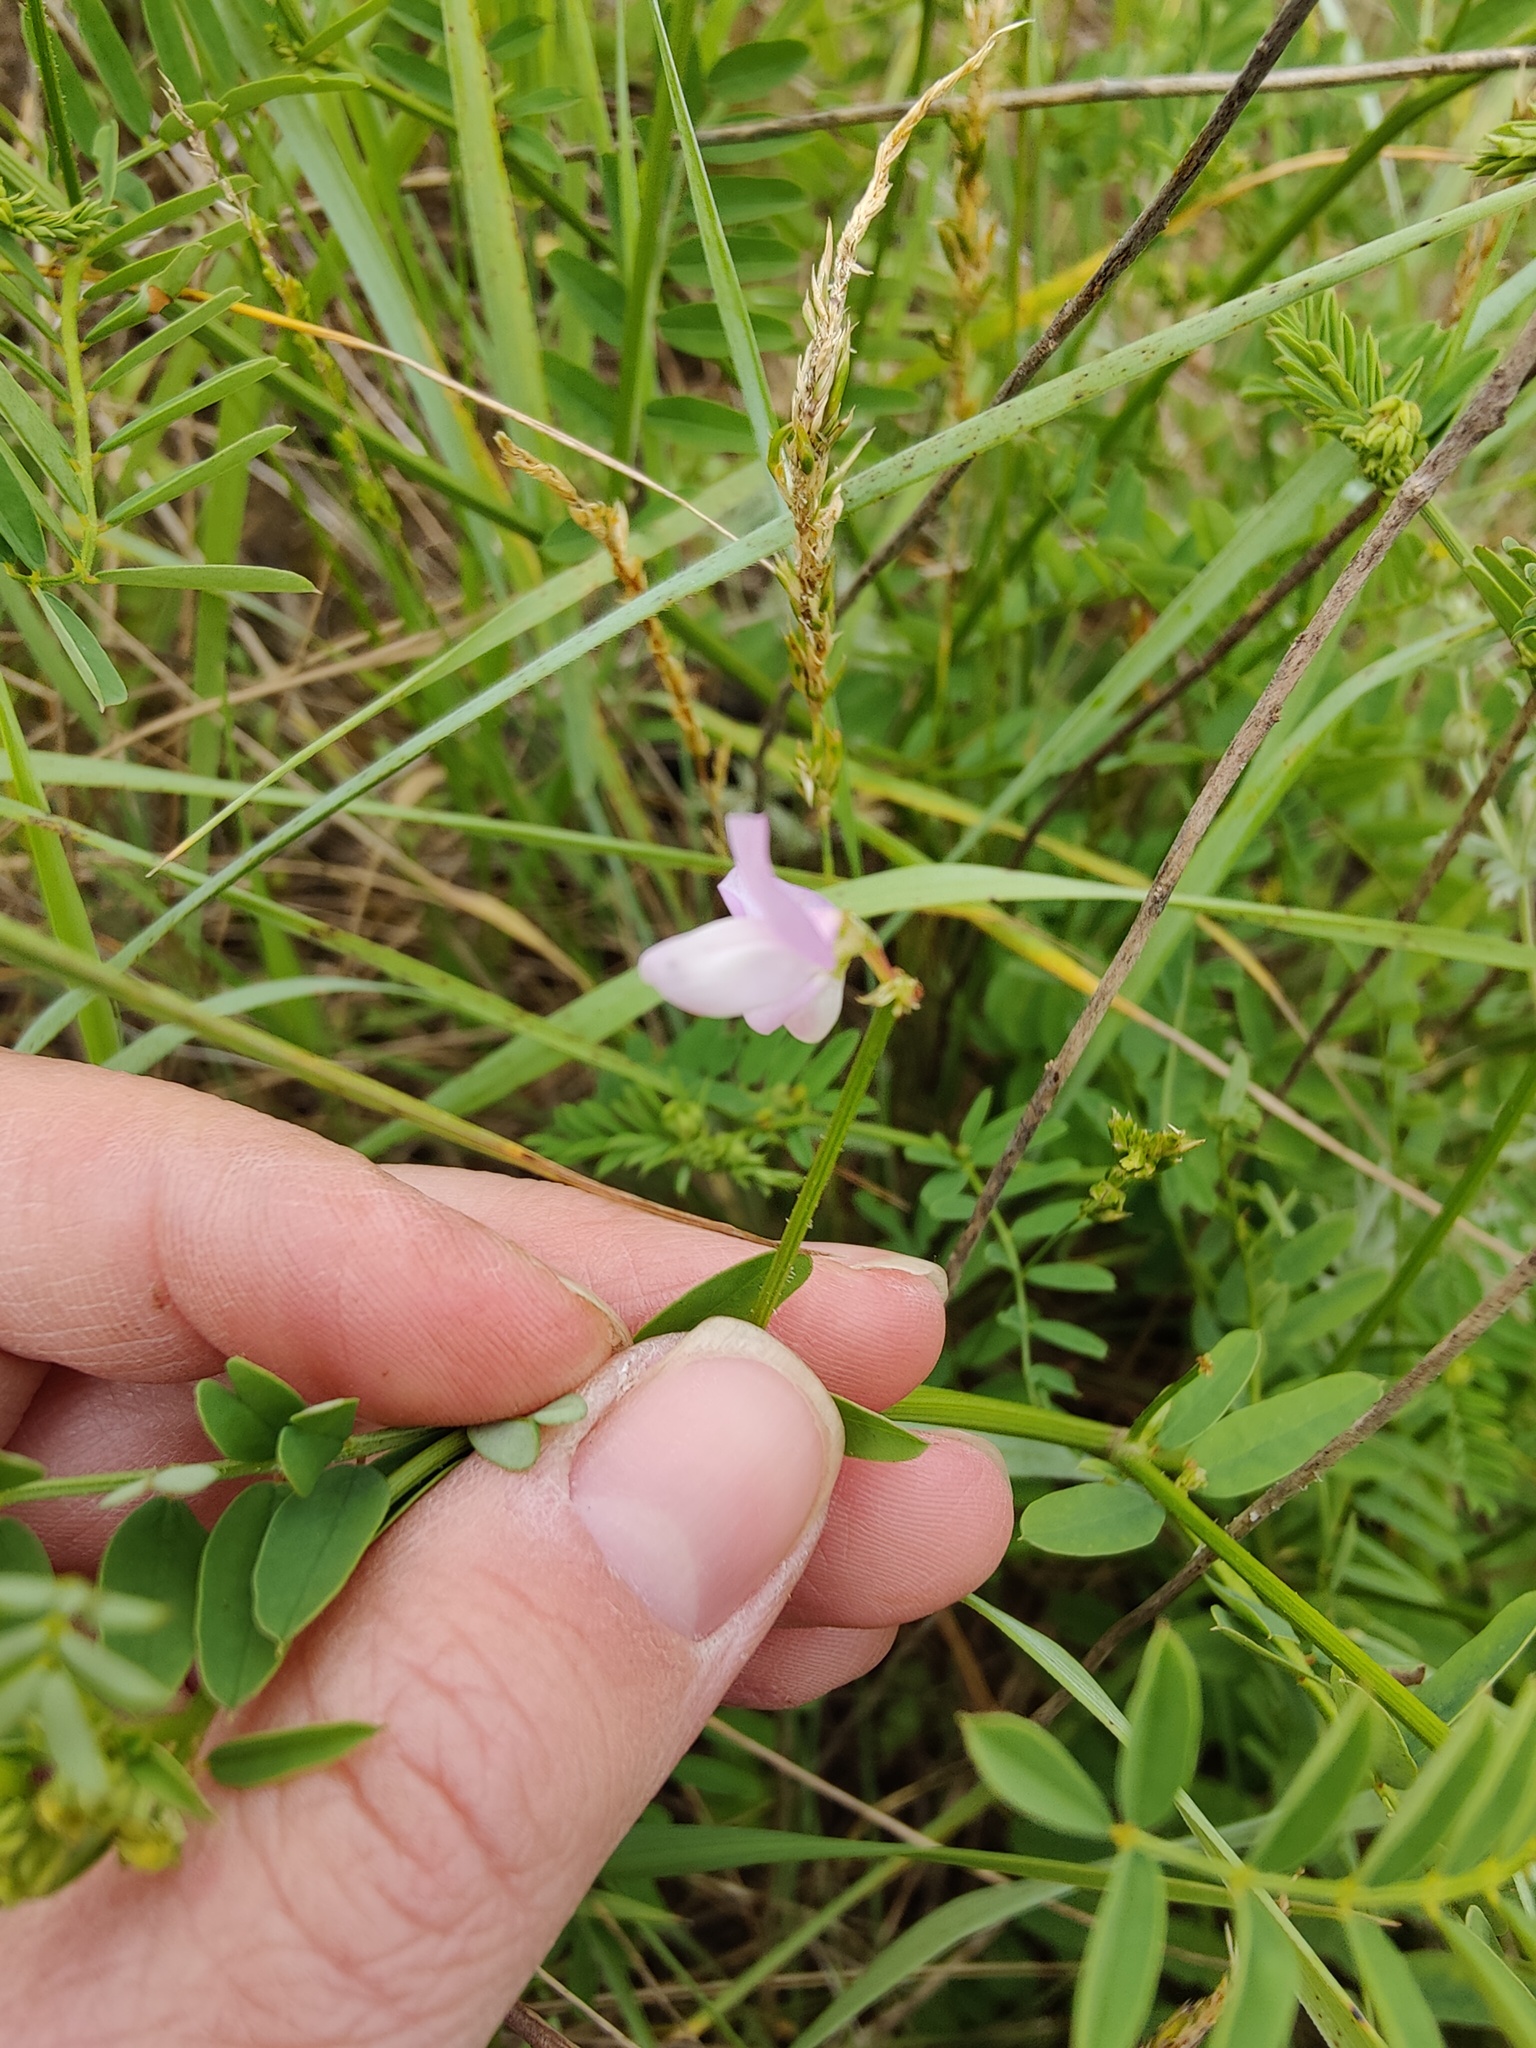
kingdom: Plantae
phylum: Tracheophyta
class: Magnoliopsida
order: Fabales
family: Fabaceae
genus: Coronilla
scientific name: Coronilla varia
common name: Crownvetch
